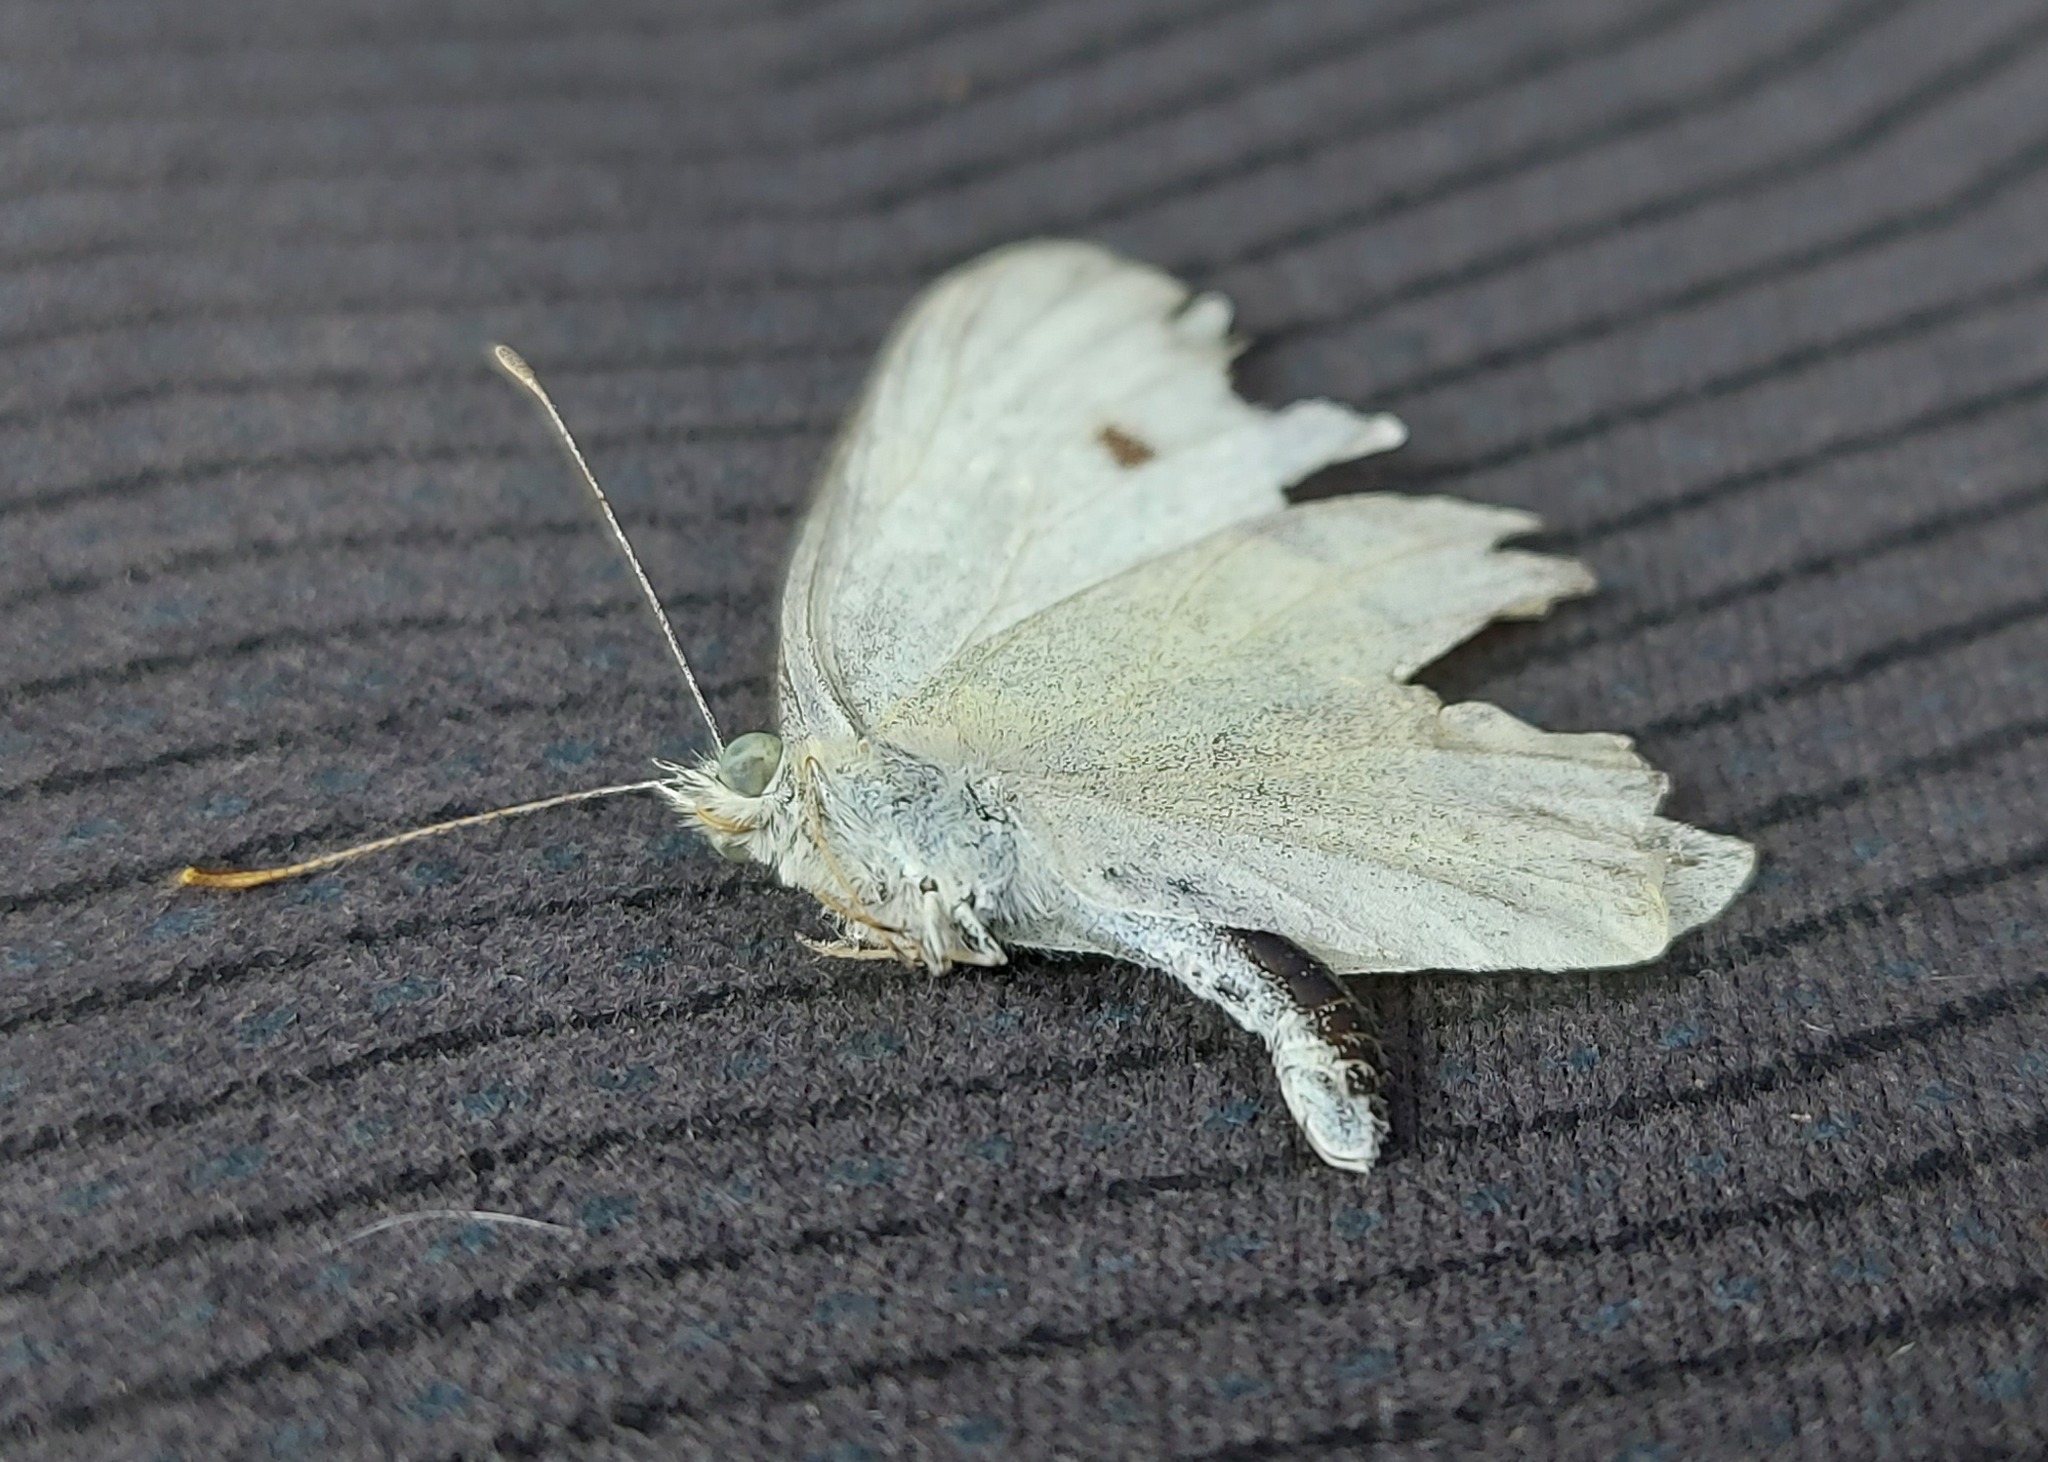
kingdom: Animalia
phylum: Arthropoda
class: Insecta
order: Lepidoptera
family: Pieridae
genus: Pieris
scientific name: Pieris rapae
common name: Small white
